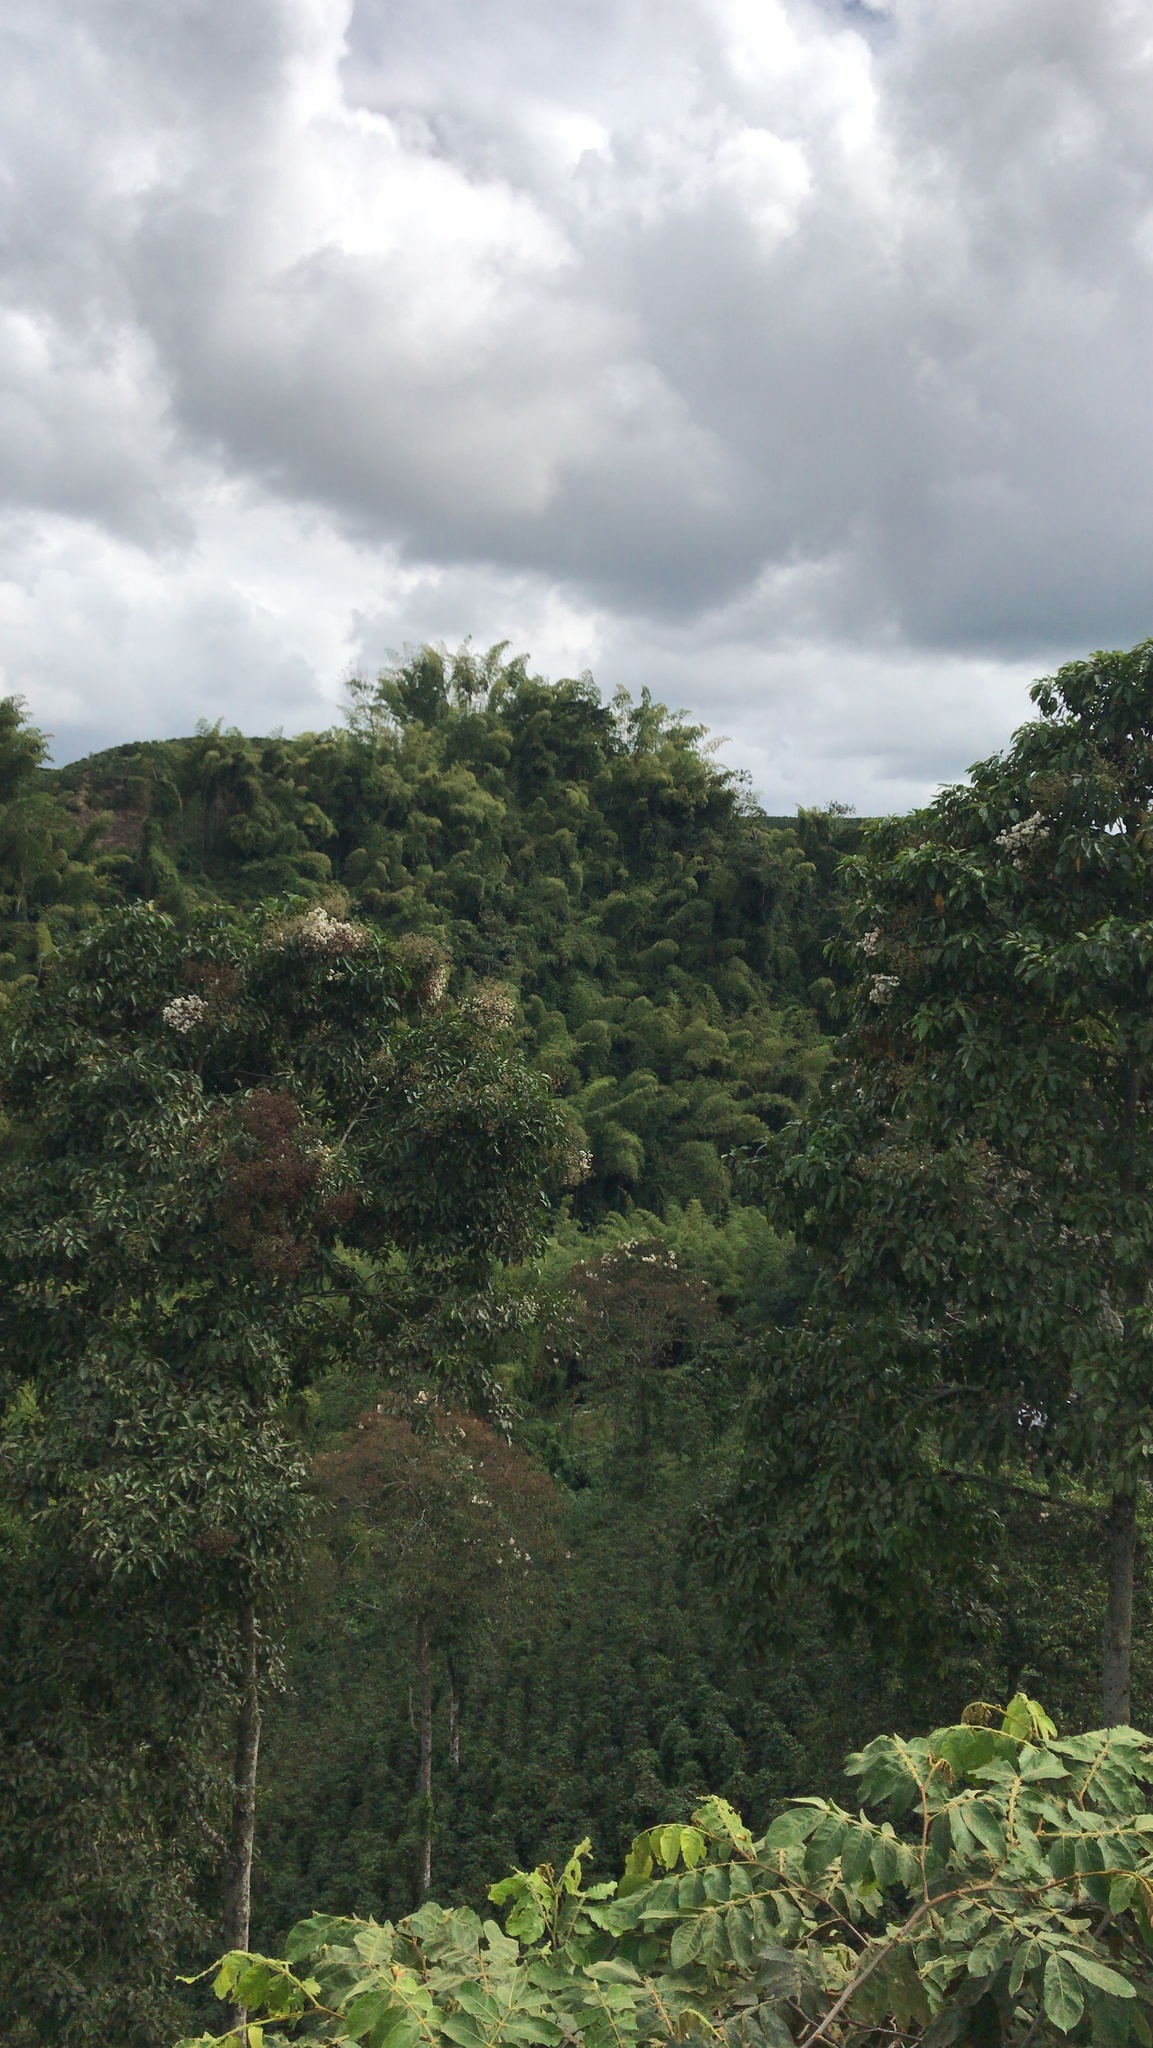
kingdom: Plantae
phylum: Tracheophyta
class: Magnoliopsida
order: Boraginales
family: Cordiaceae
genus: Cordia
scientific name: Cordia alliodora
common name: Spanish elm
